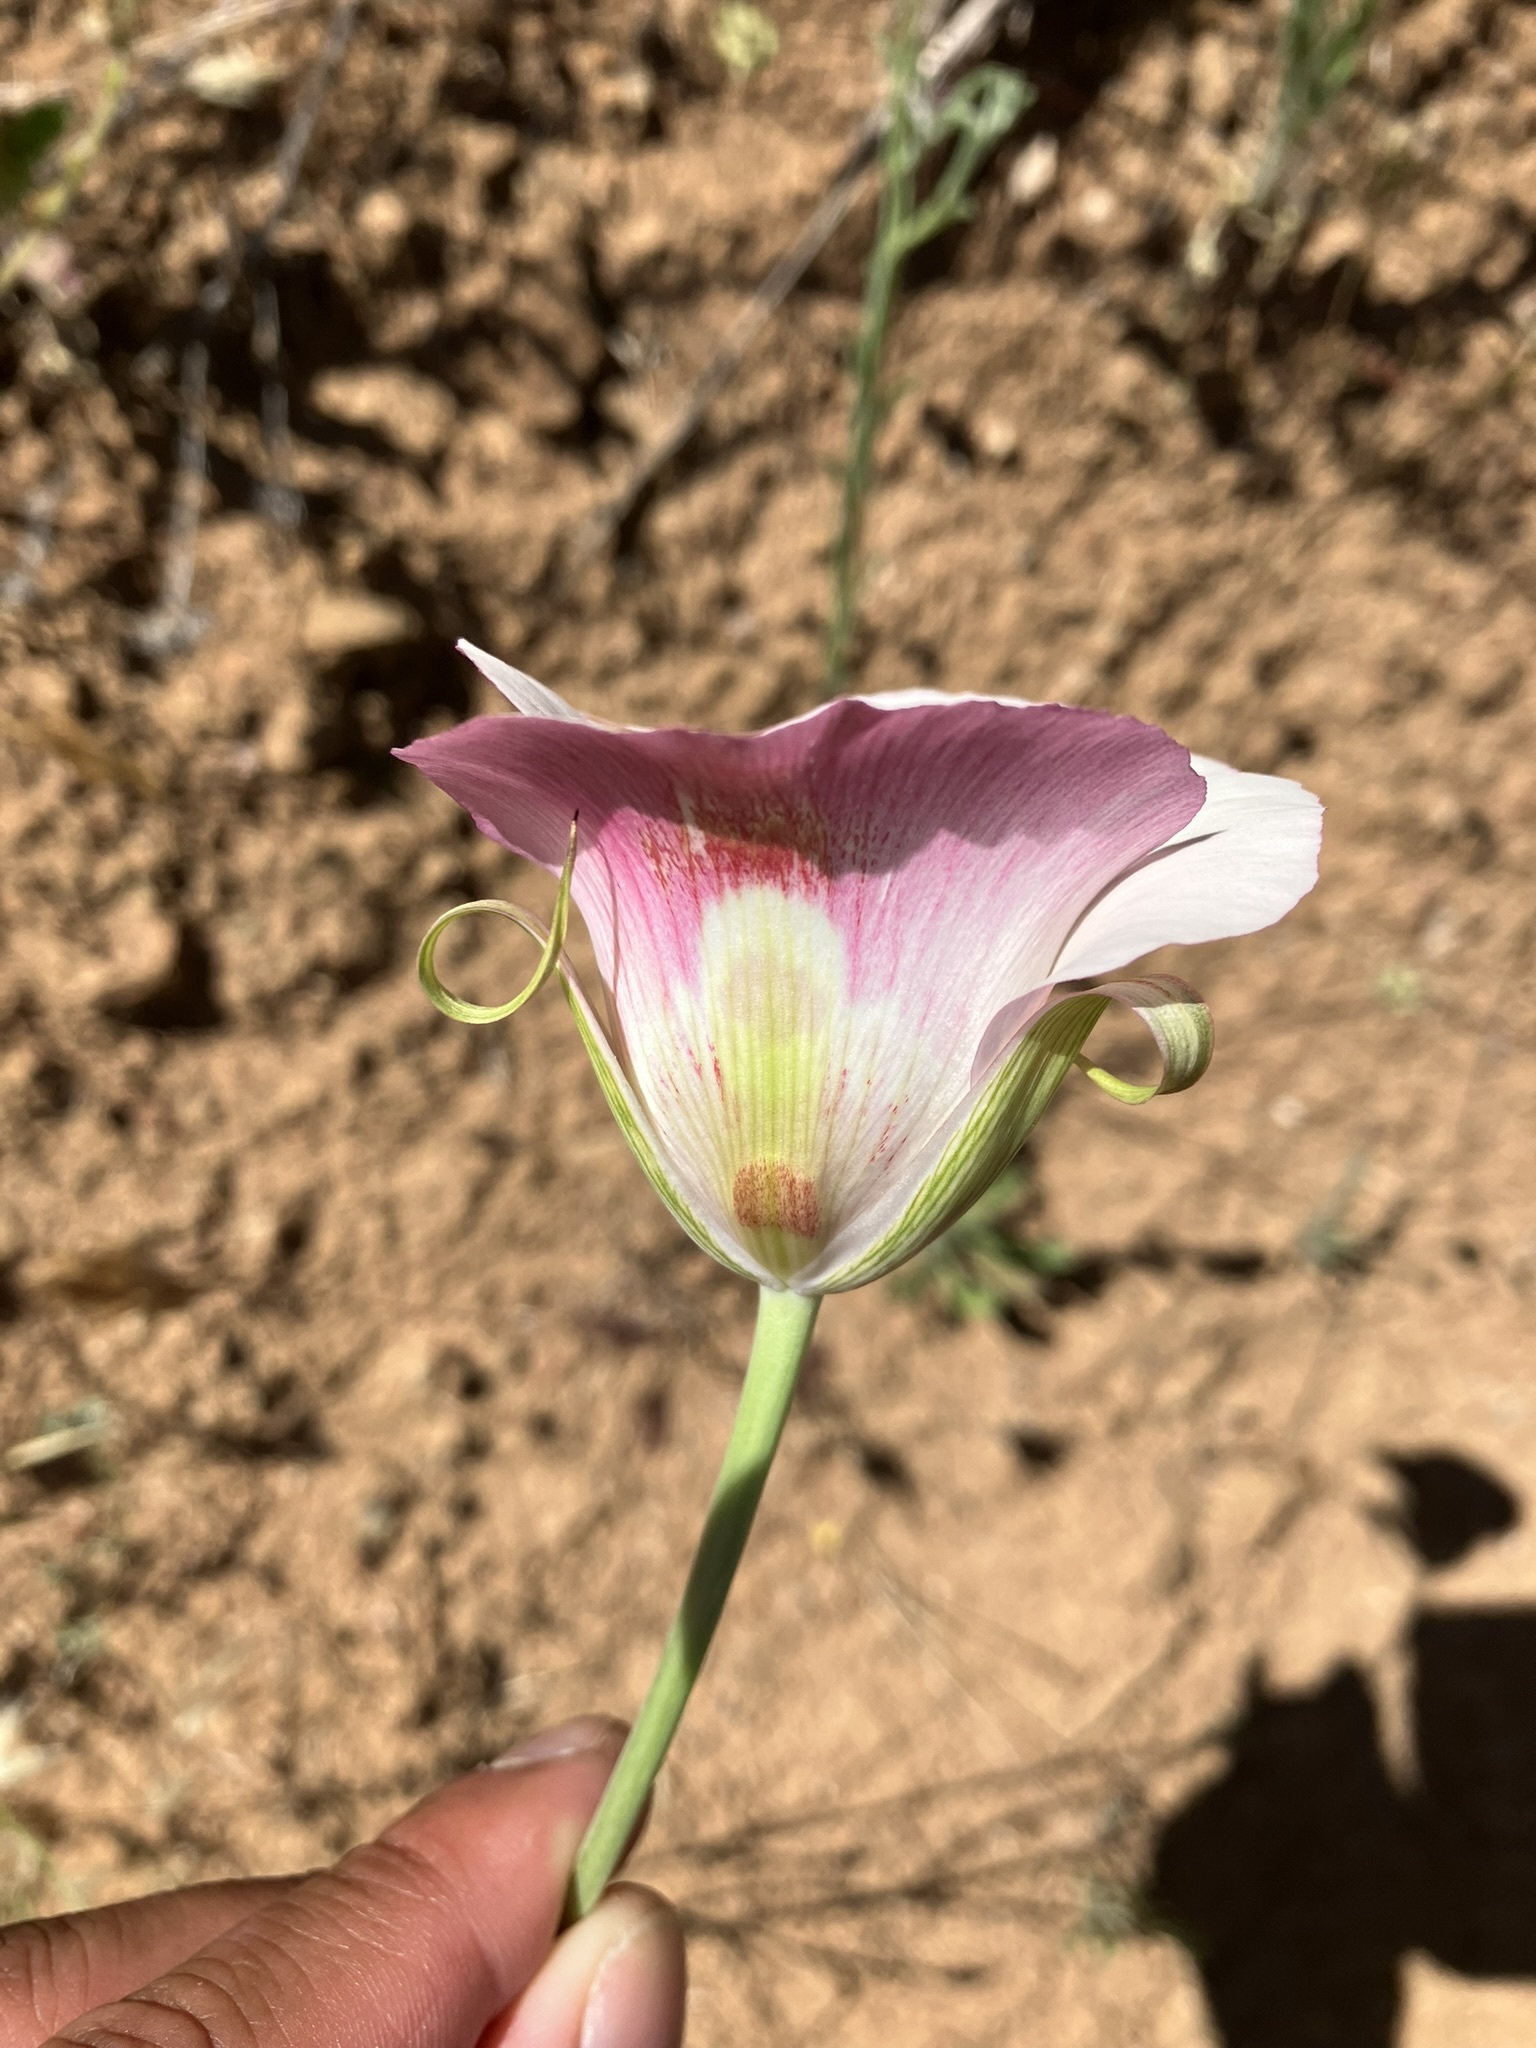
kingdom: Plantae
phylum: Tracheophyta
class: Liliopsida
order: Liliales
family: Liliaceae
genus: Calochortus
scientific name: Calochortus venustus
